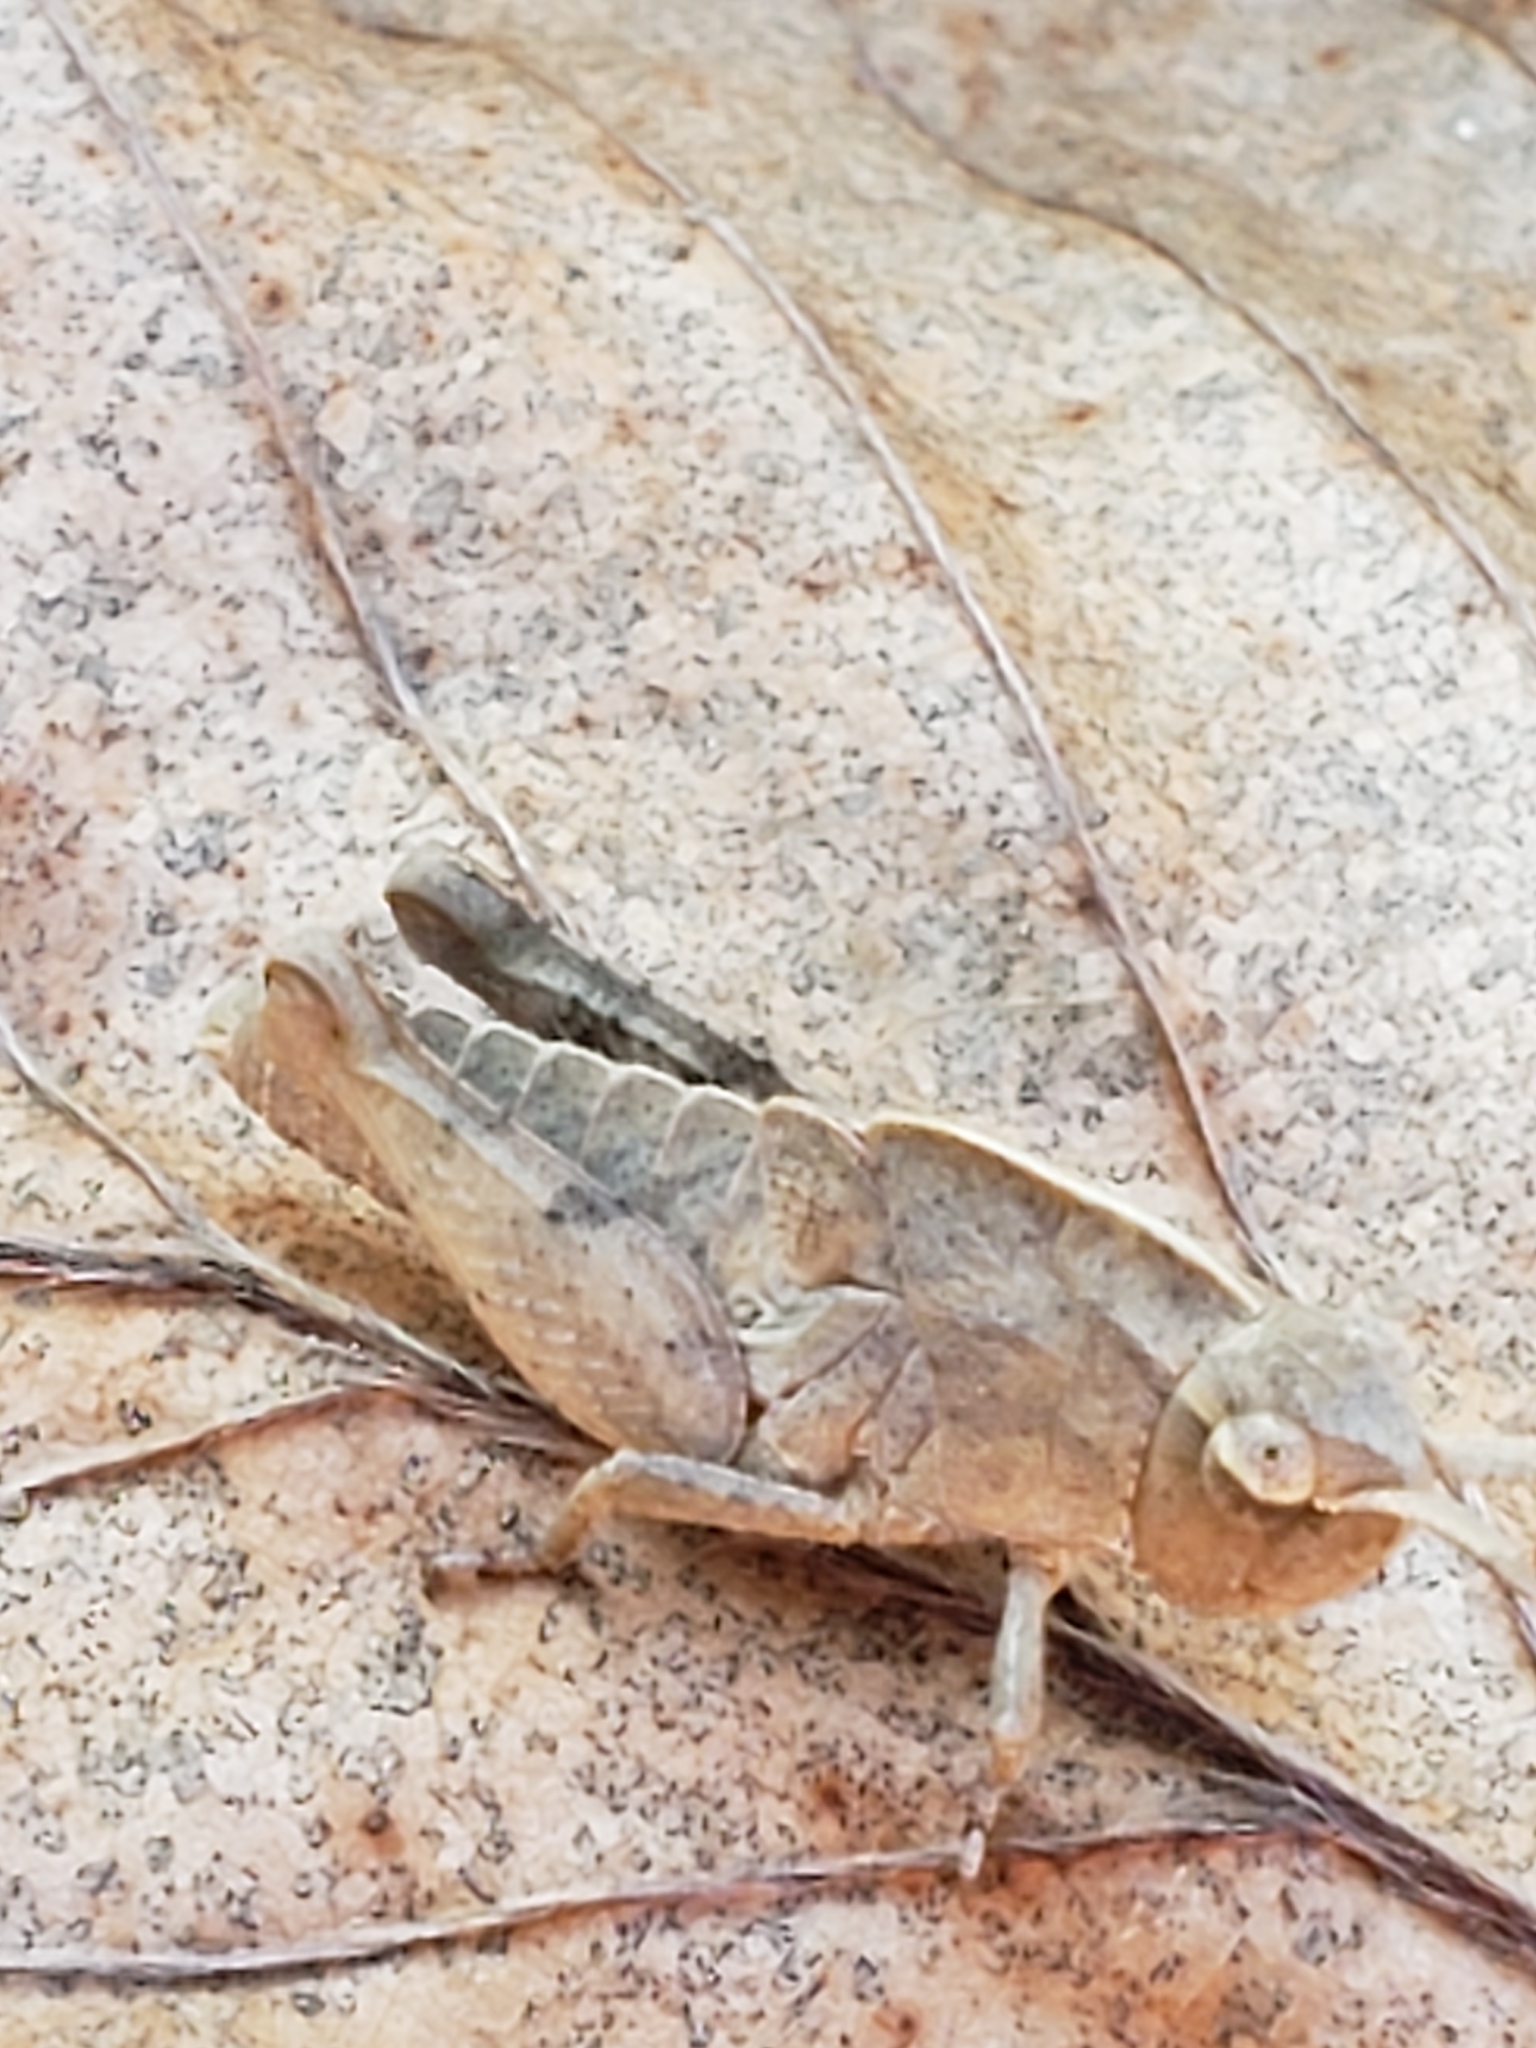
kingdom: Animalia
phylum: Arthropoda
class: Insecta
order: Orthoptera
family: Acrididae
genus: Chortophaga
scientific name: Chortophaga viridifasciata
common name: Green-striped grasshopper
